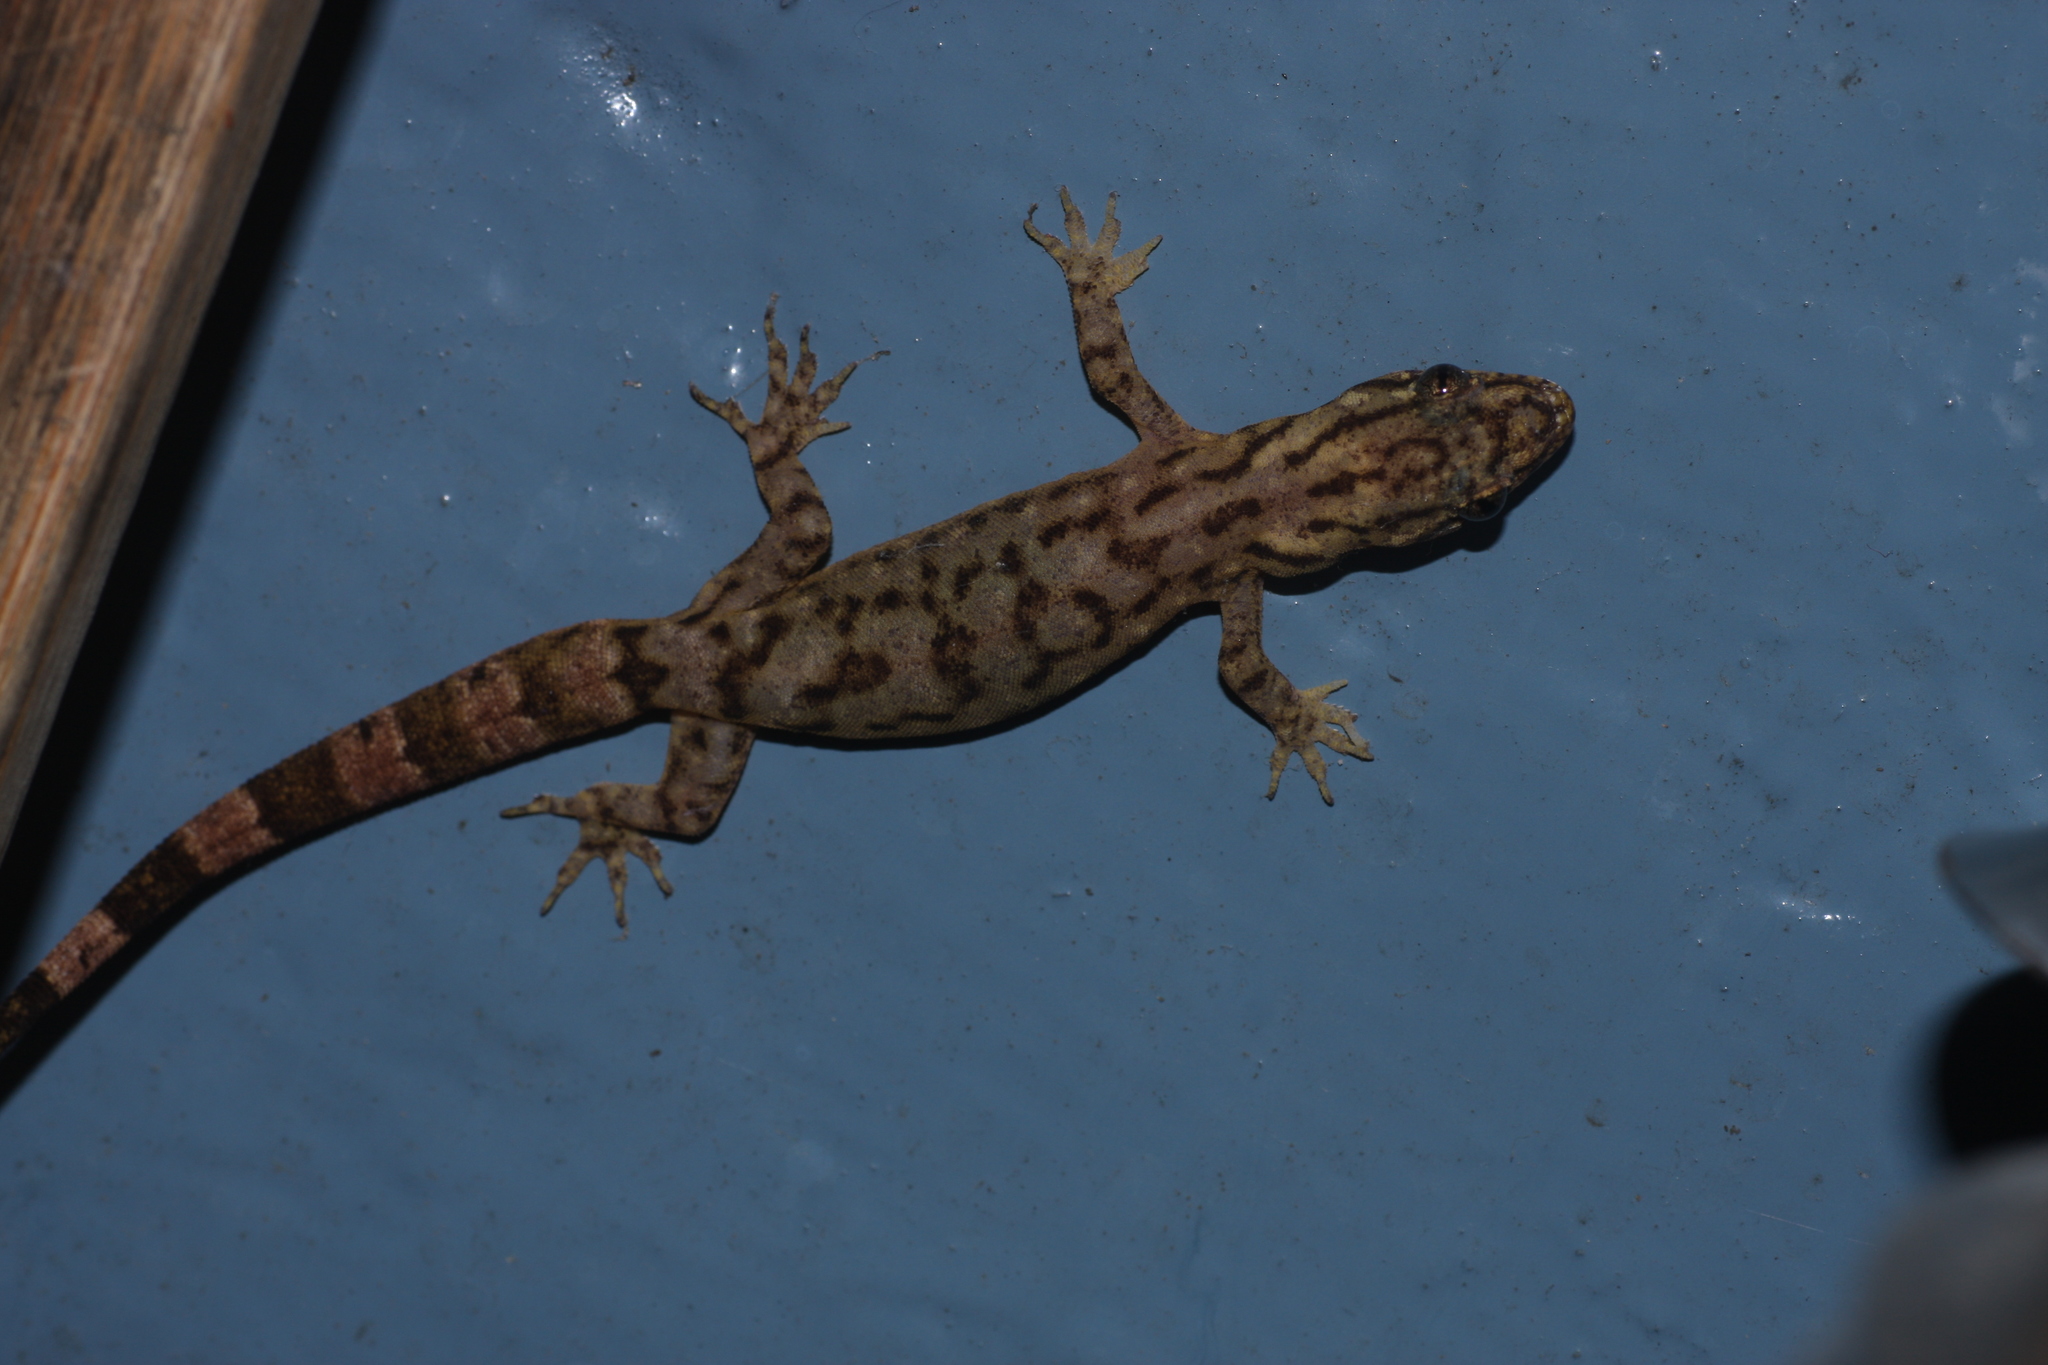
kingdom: Animalia
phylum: Chordata
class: Squamata
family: Gekkonidae
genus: Dravidogecko
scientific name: Dravidogecko anamallensis
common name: Anaimalai dravidogecko
